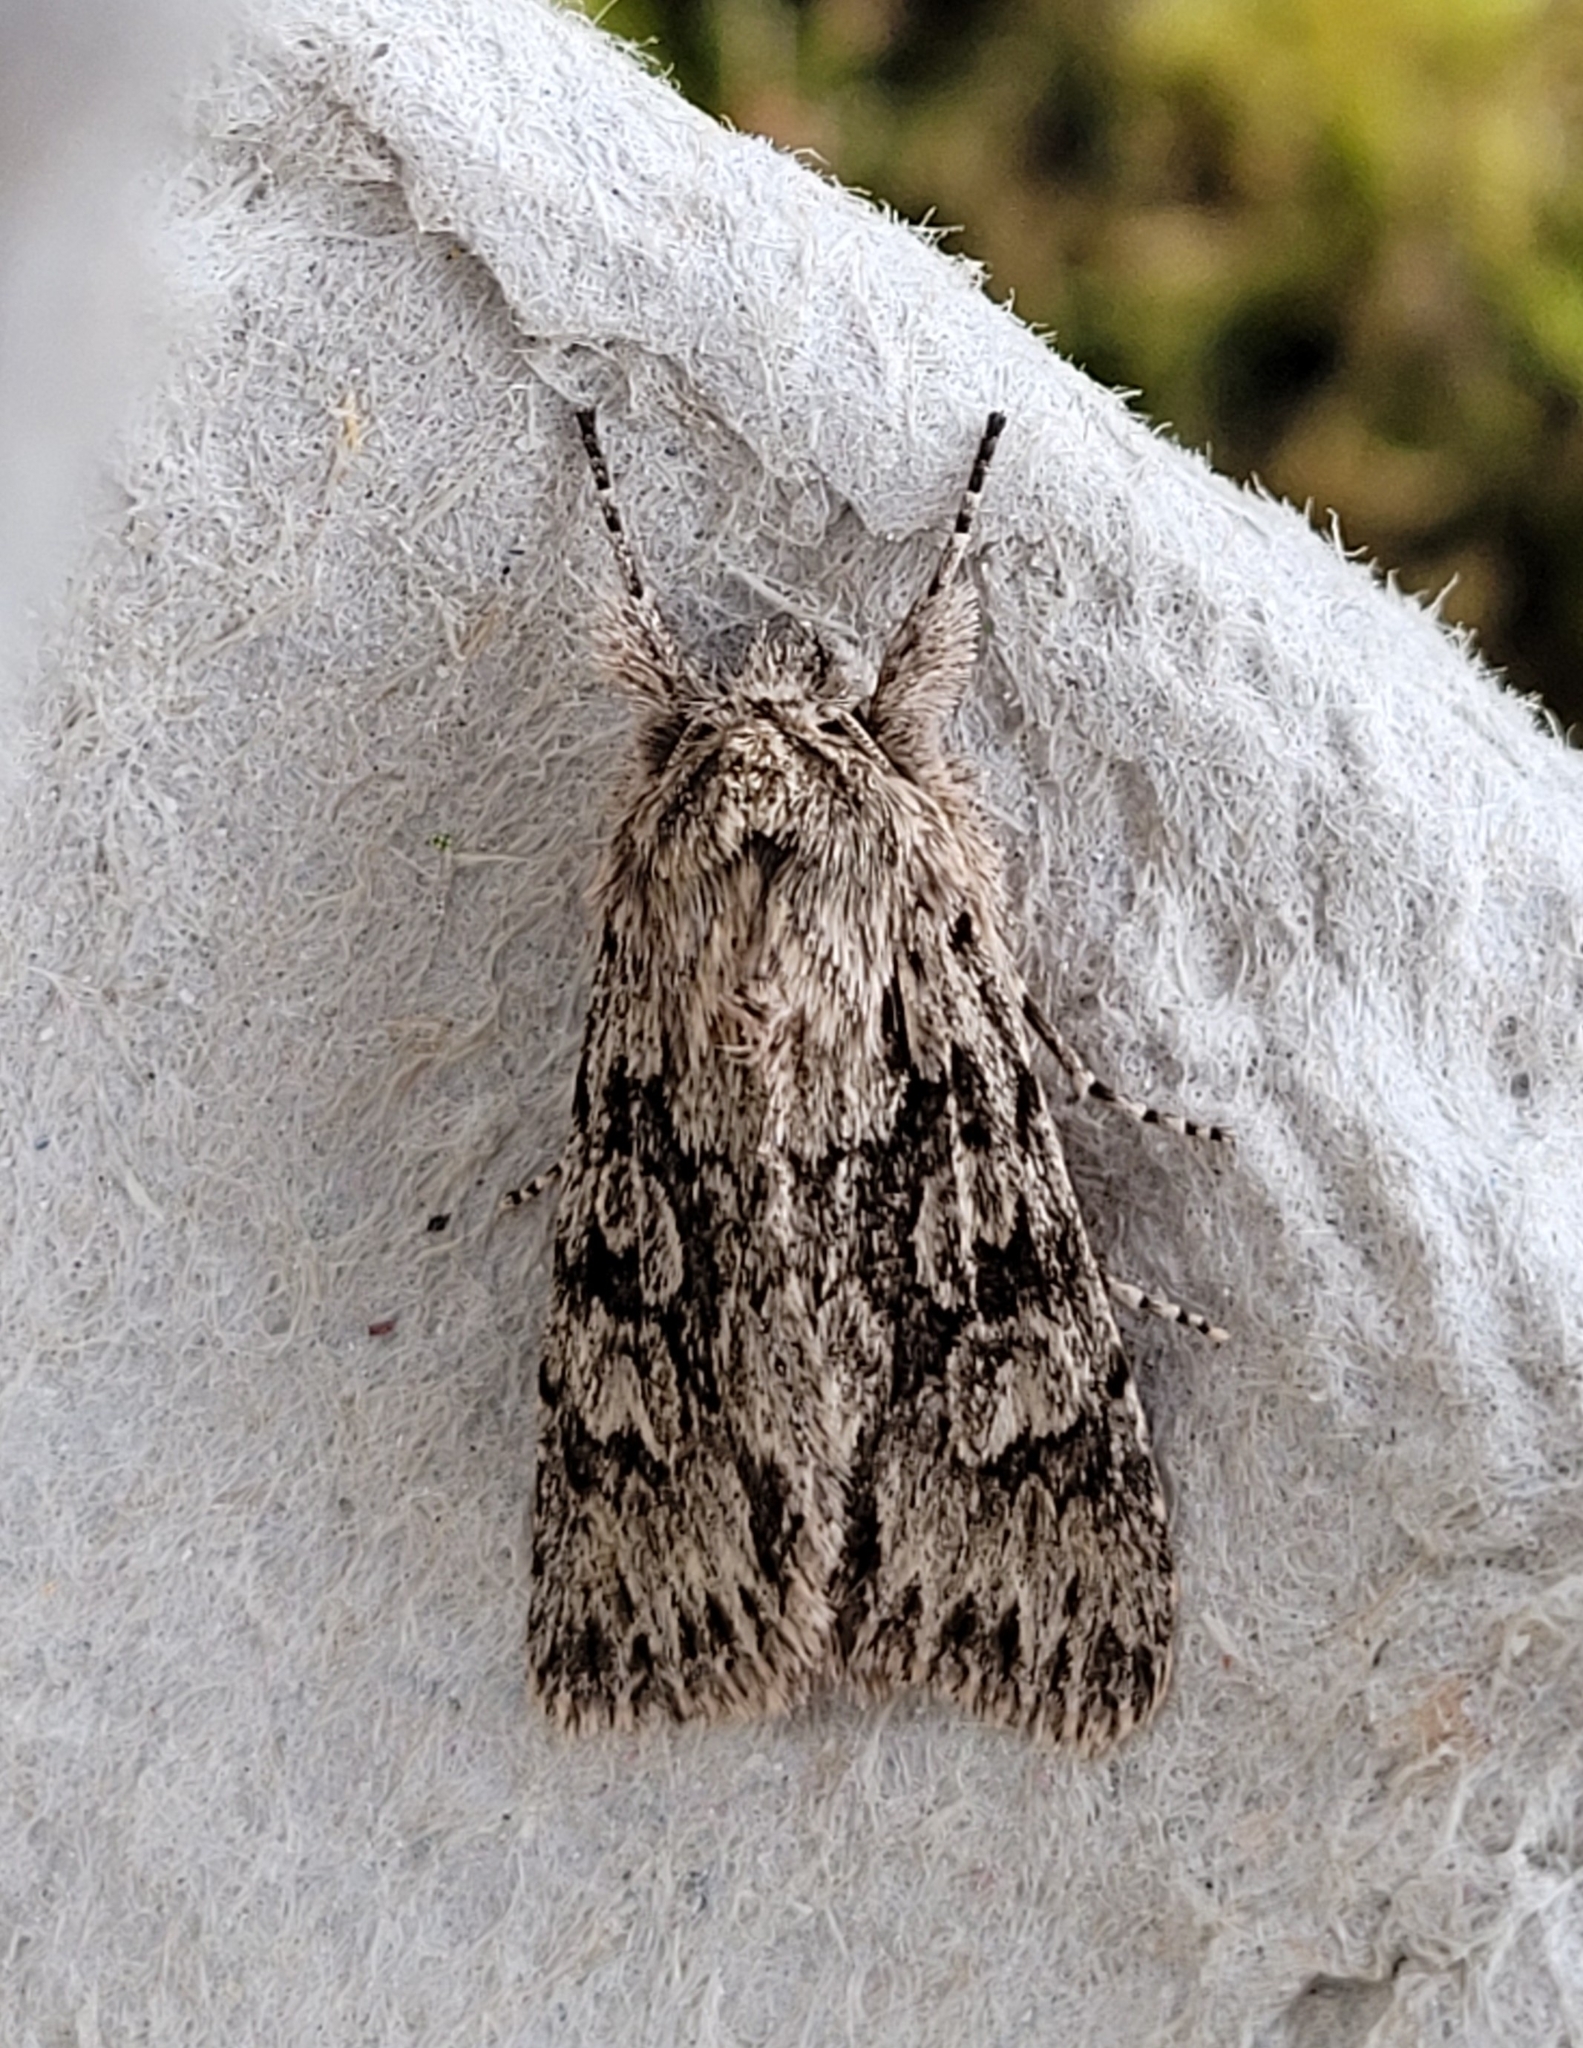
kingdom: Animalia
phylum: Arthropoda
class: Insecta
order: Lepidoptera
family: Noctuidae
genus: Xylocampa
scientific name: Xylocampa areola
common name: Early grey
